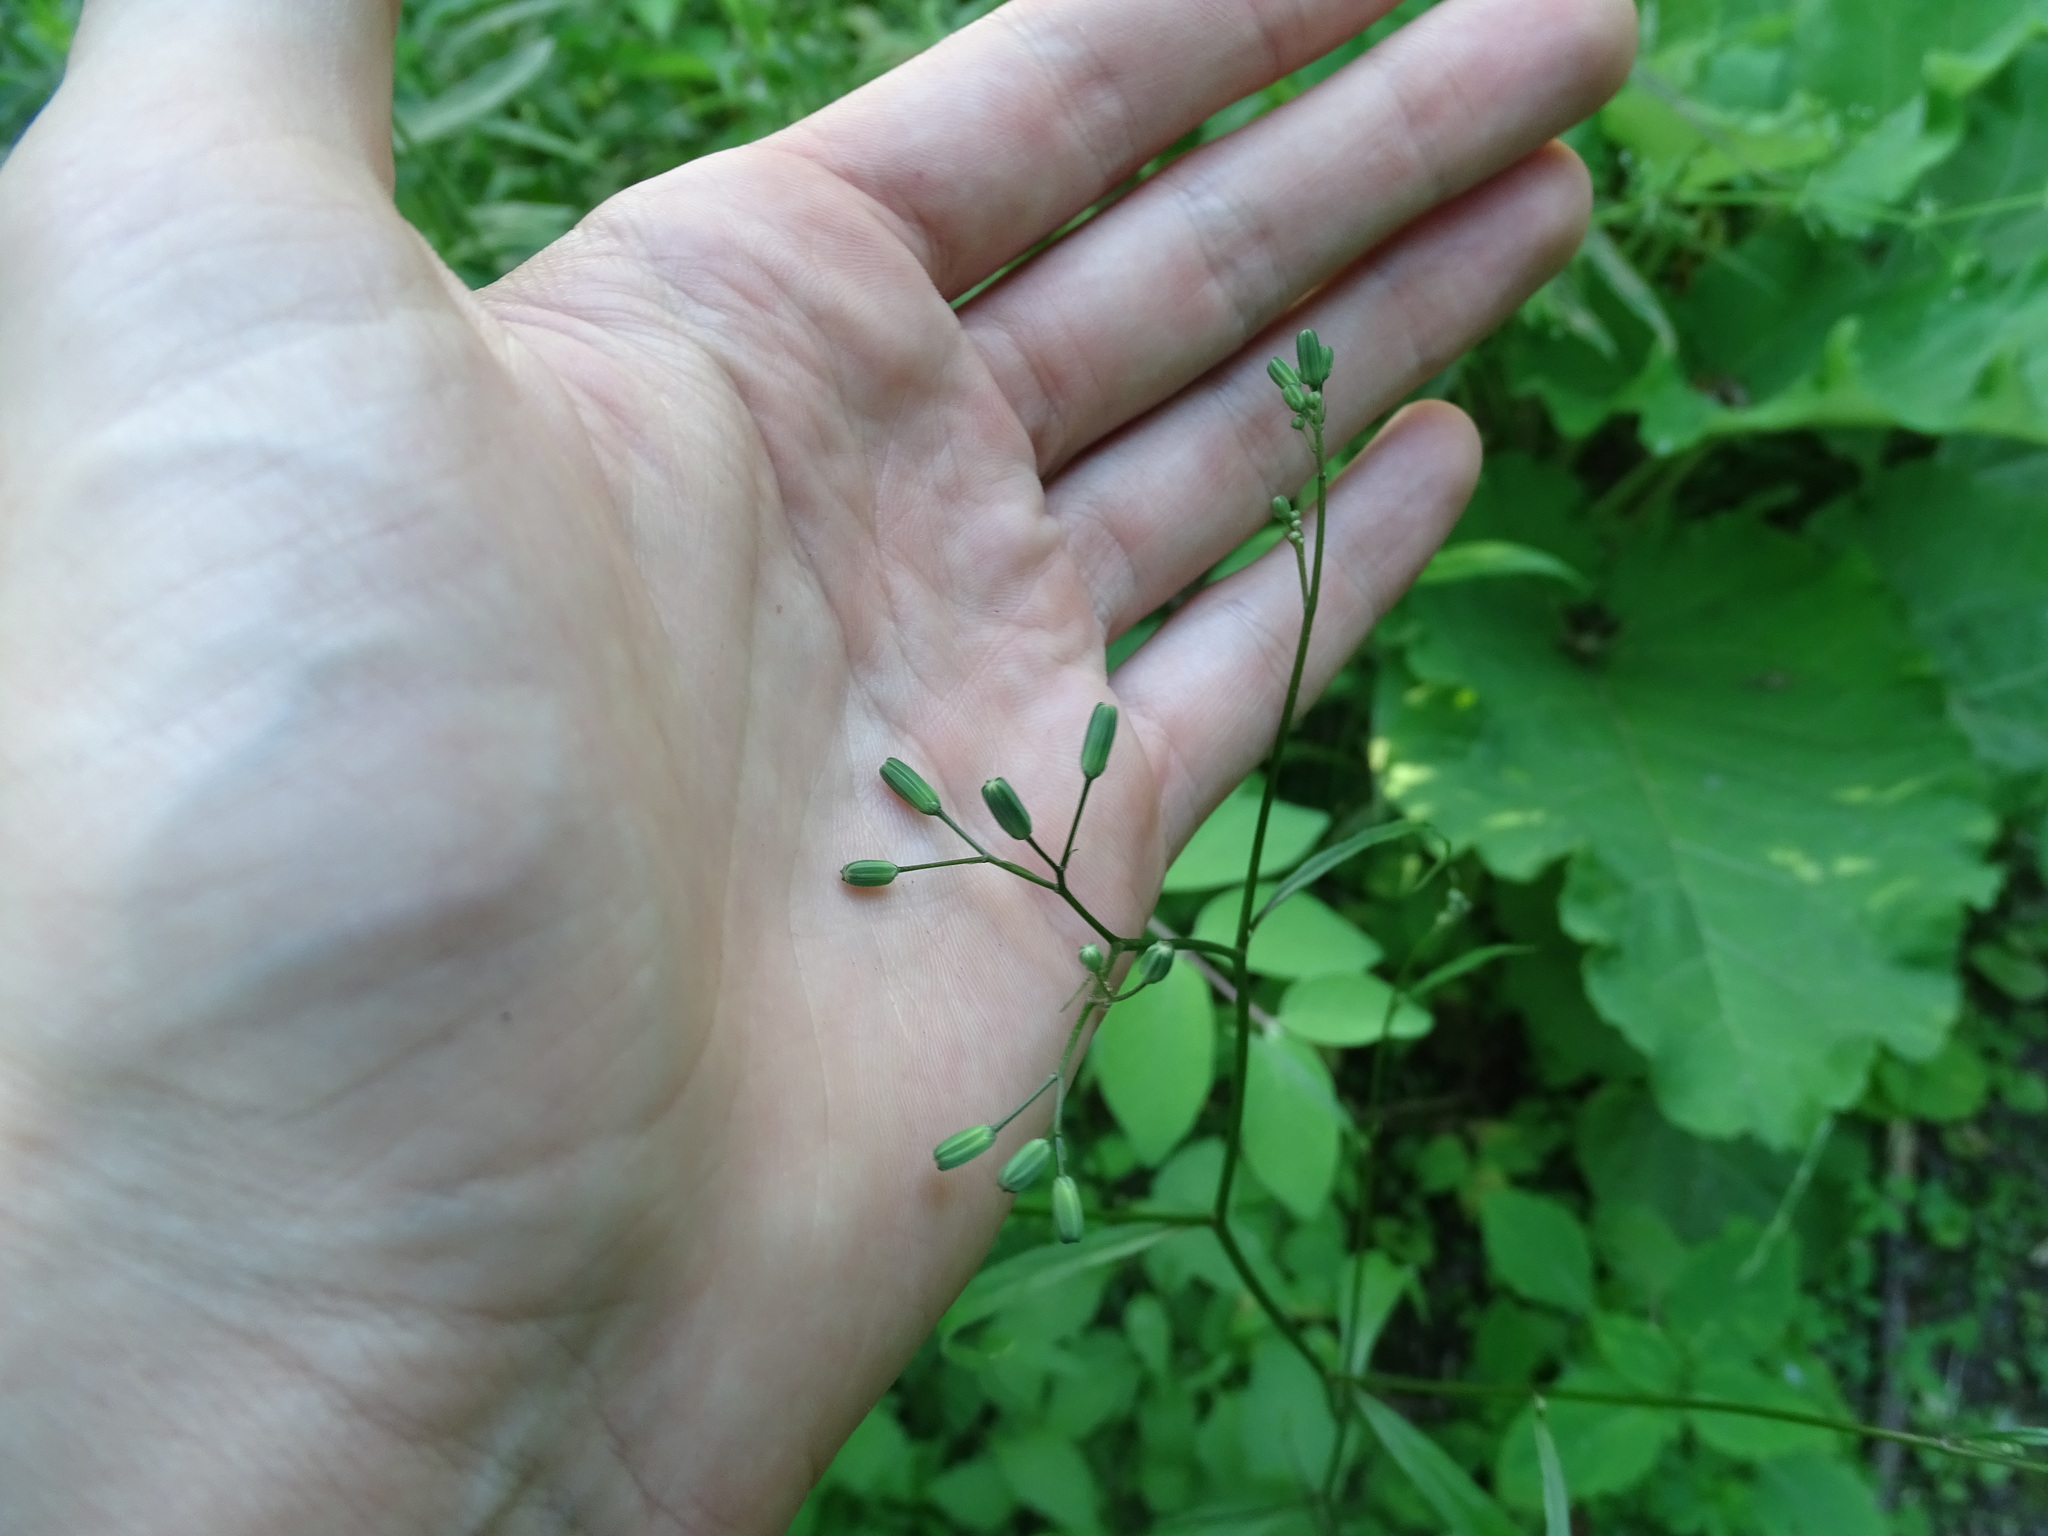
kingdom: Plantae
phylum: Tracheophyta
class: Magnoliopsida
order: Asterales
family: Asteraceae
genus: Lapsana
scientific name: Lapsana communis
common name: Nipplewort
